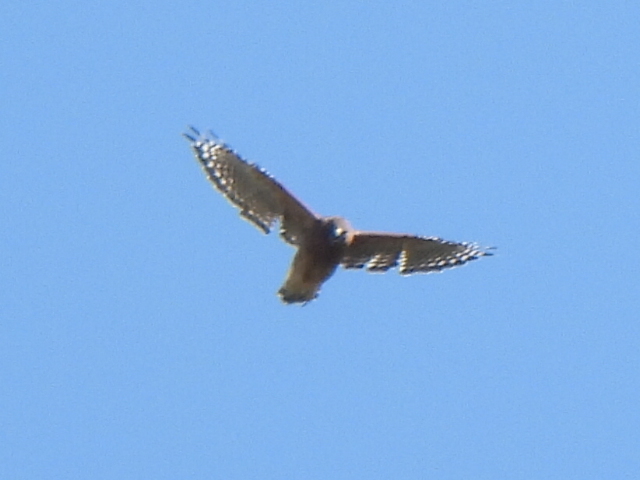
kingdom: Animalia
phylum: Chordata
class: Aves
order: Accipitriformes
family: Accipitridae
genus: Buteo
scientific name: Buteo lineatus
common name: Red-shouldered hawk
